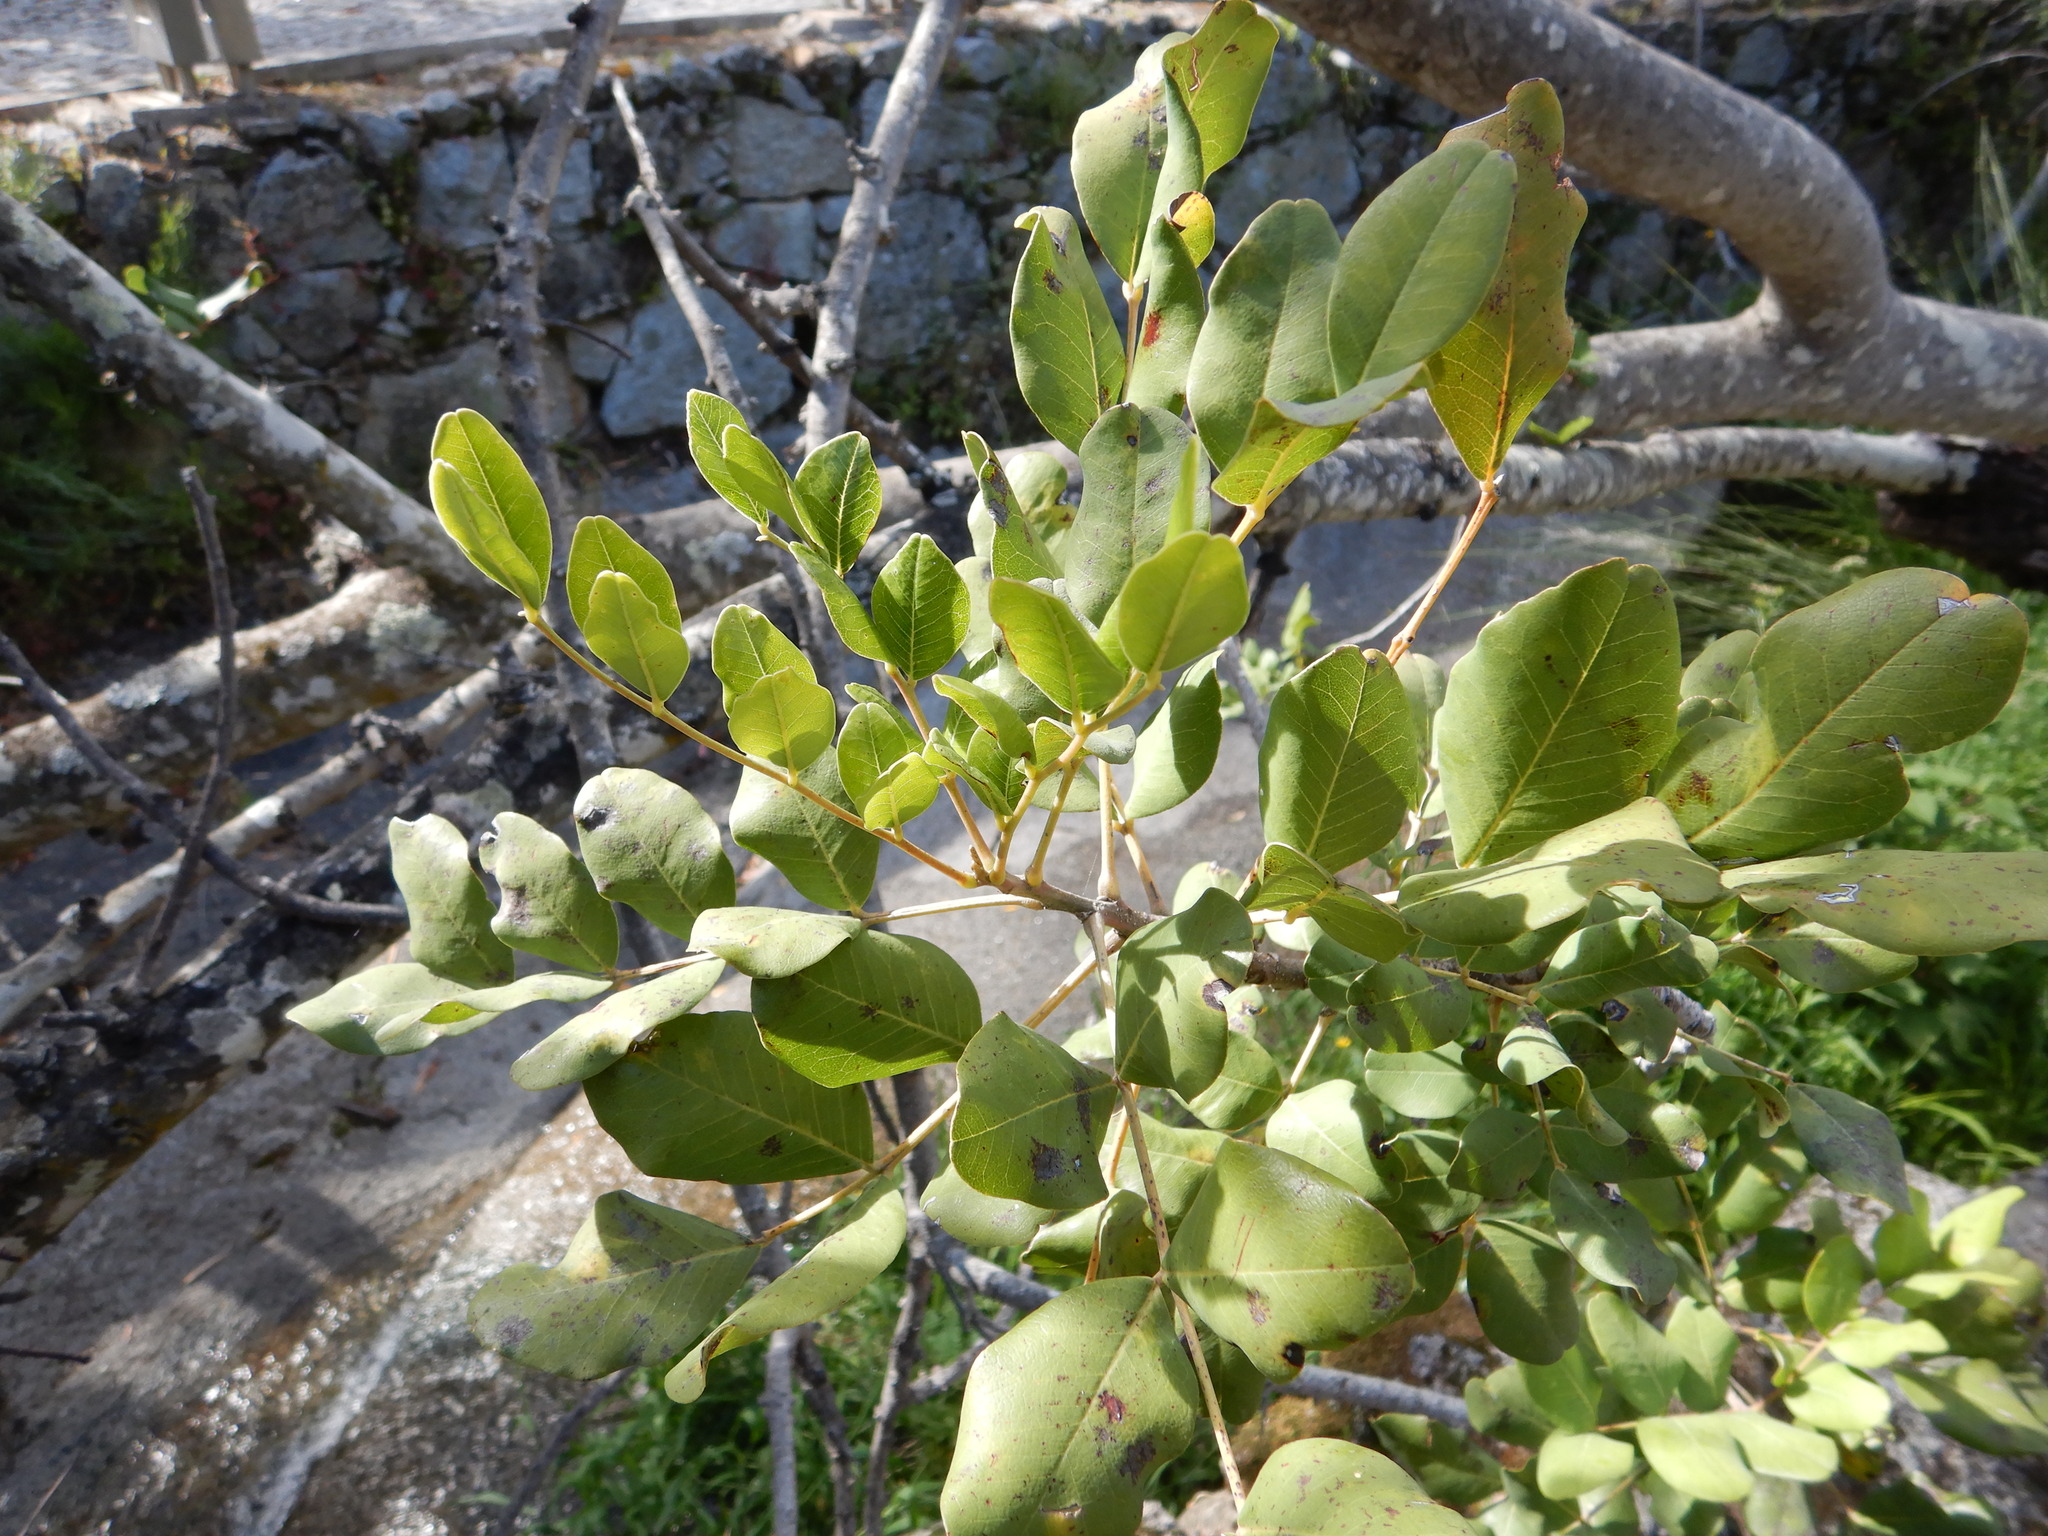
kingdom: Plantae
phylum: Tracheophyta
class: Magnoliopsida
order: Fabales
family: Fabaceae
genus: Ceratonia
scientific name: Ceratonia siliqua
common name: Carob
